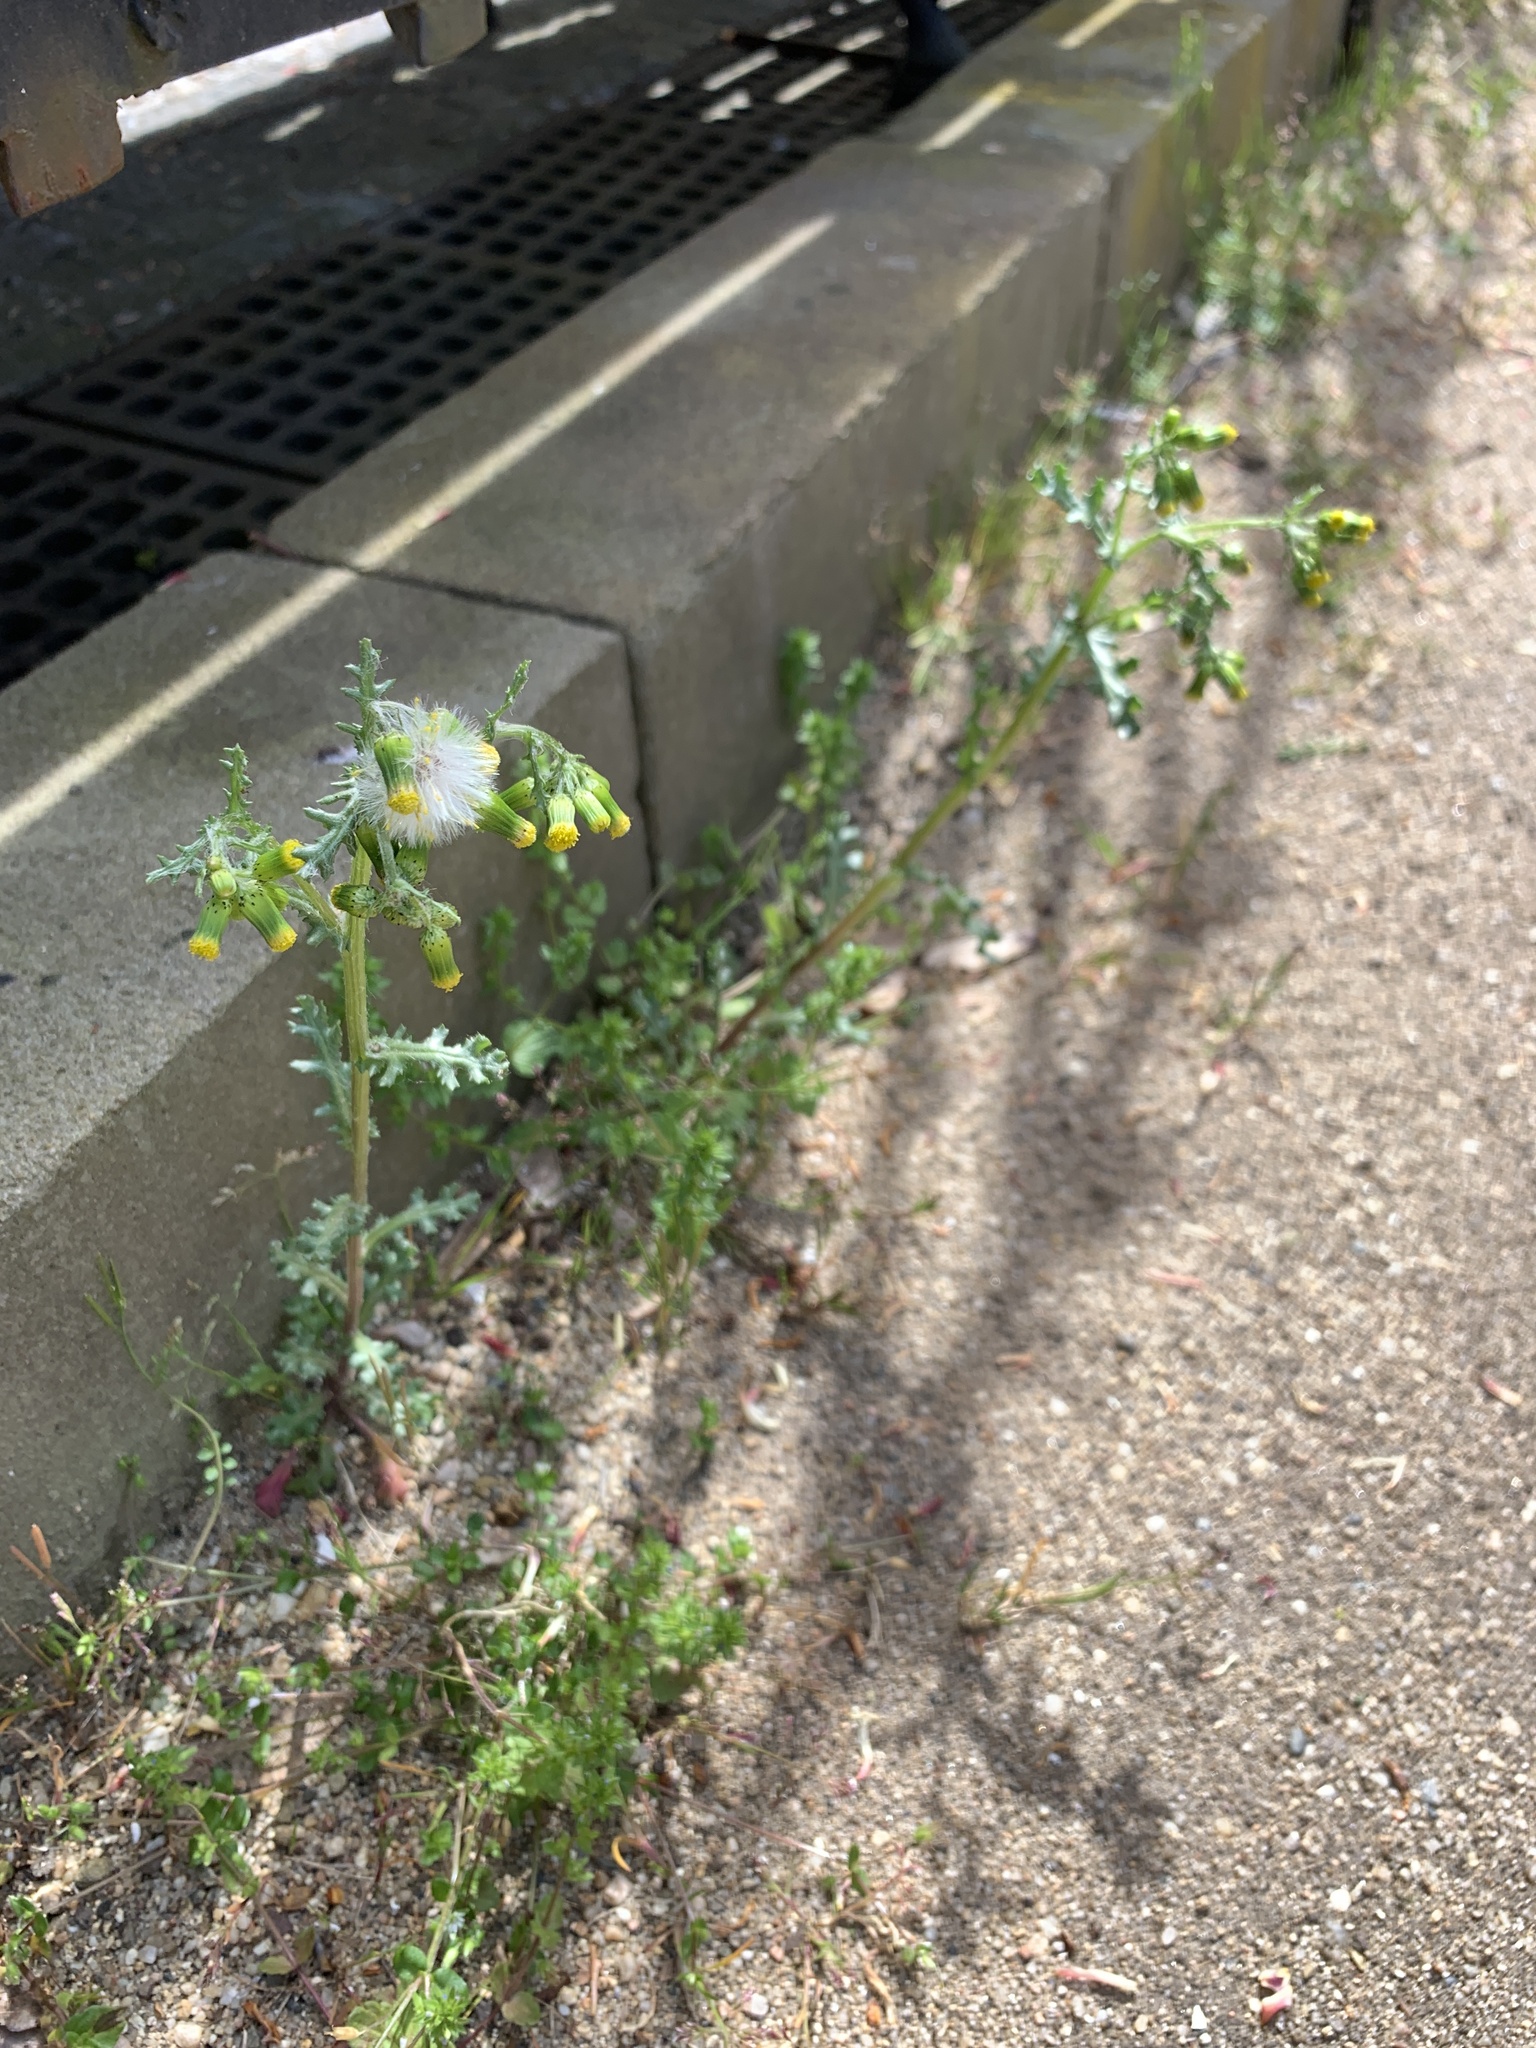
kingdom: Plantae
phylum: Tracheophyta
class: Magnoliopsida
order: Asterales
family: Asteraceae
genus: Senecio
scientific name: Senecio vulgaris
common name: Old-man-in-the-spring
